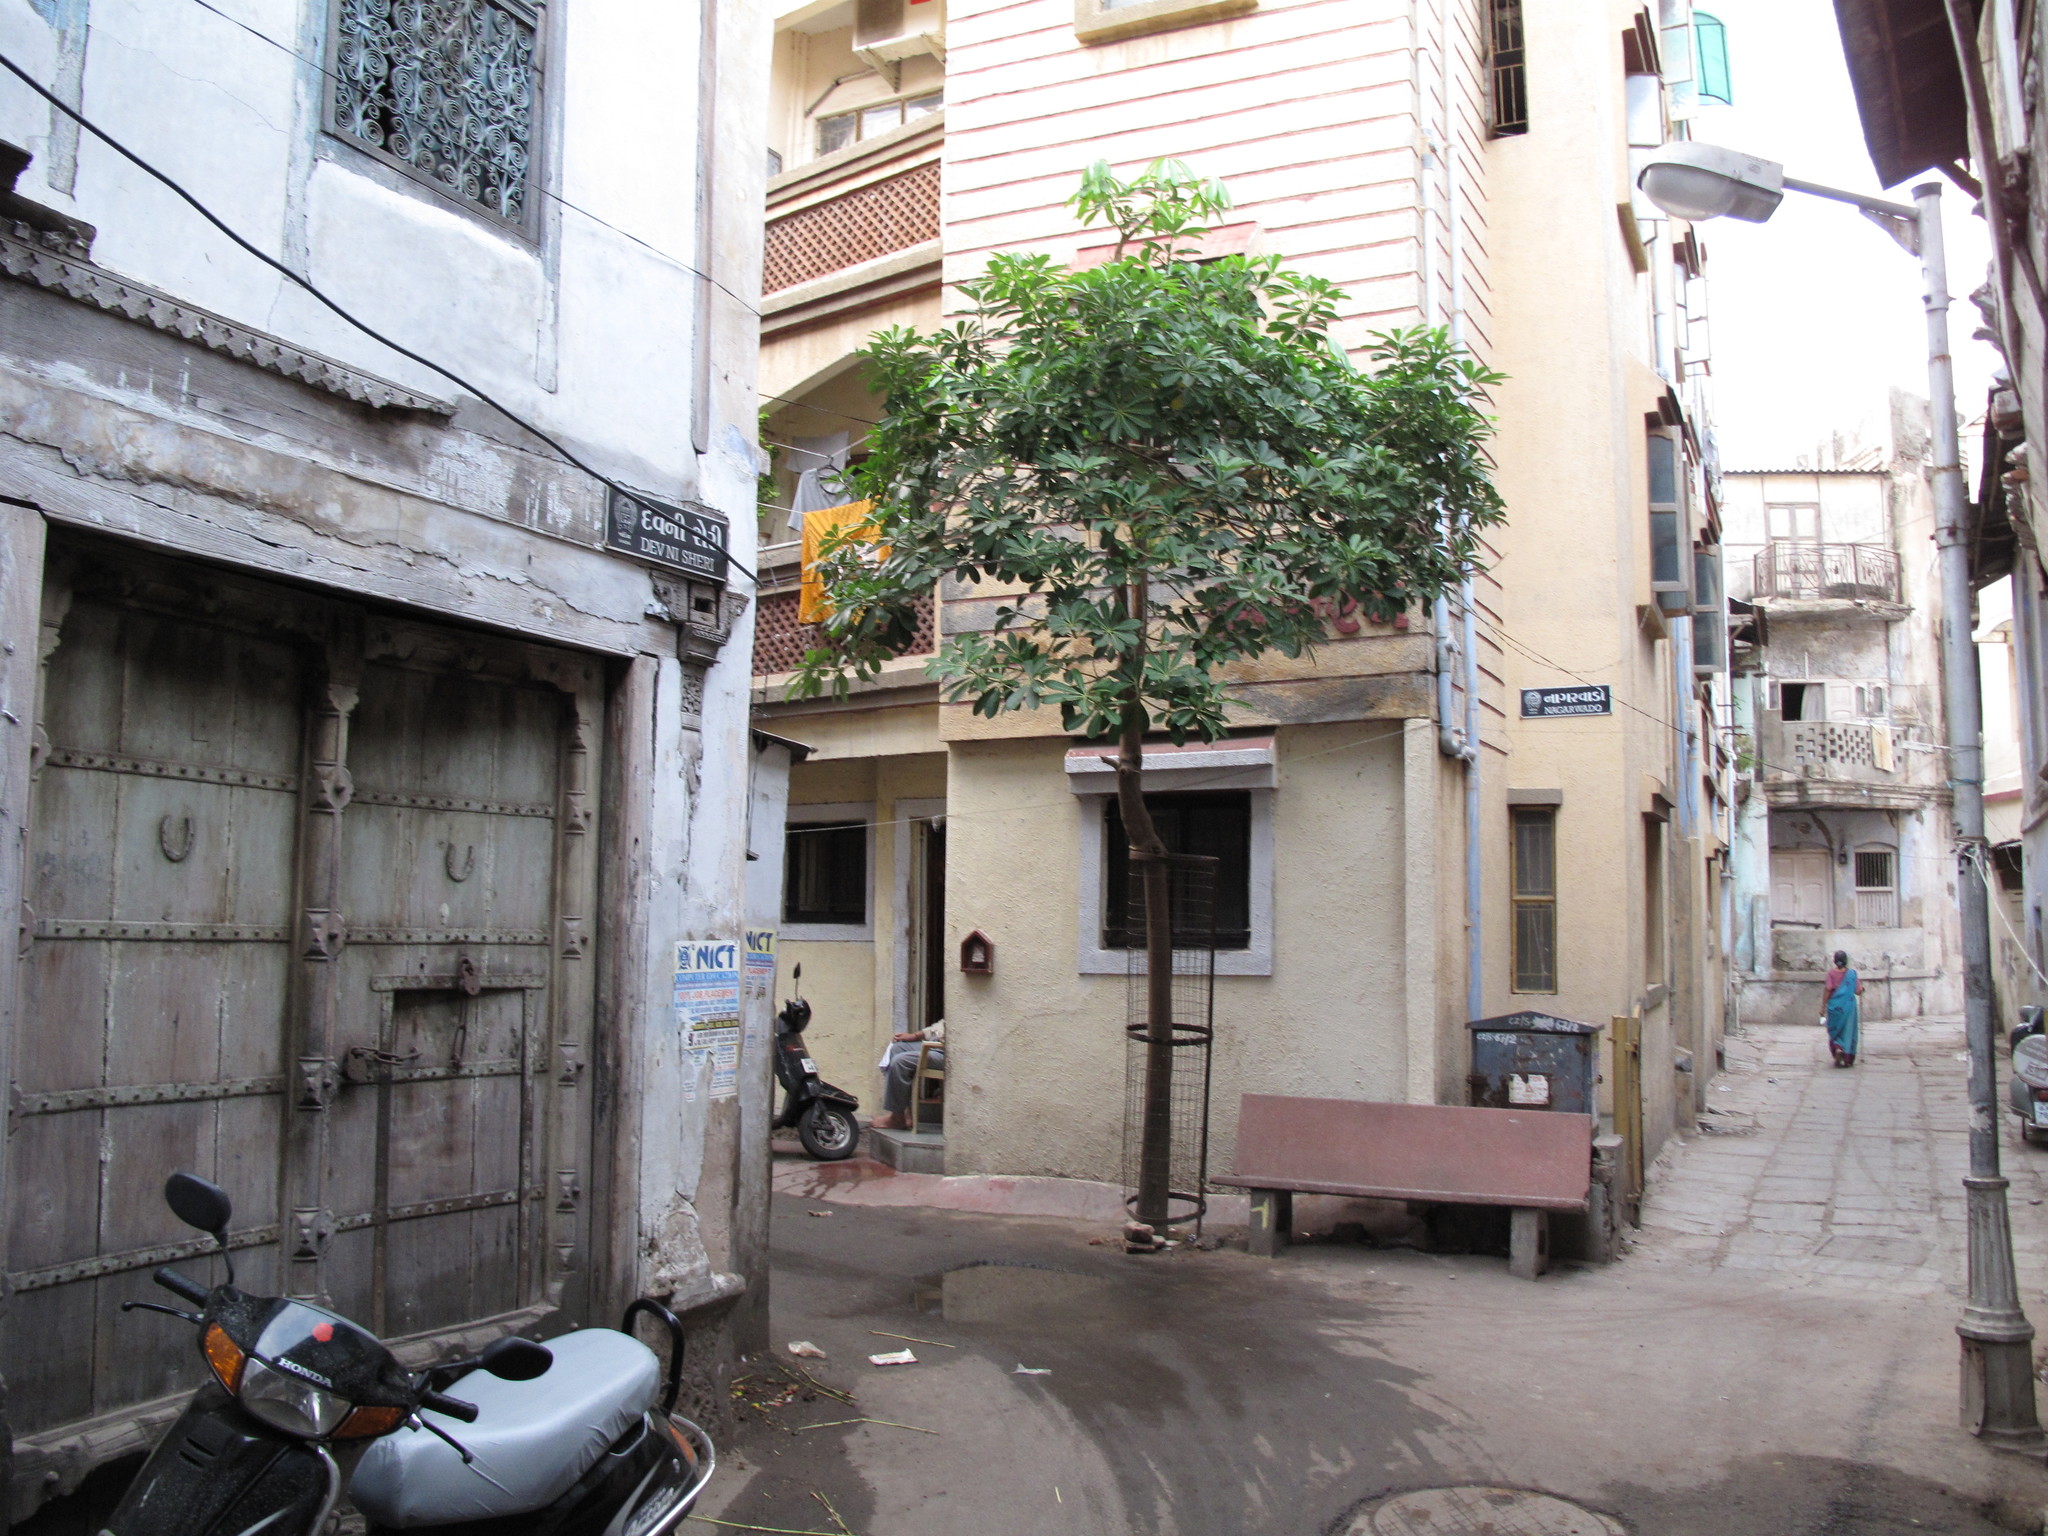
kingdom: Plantae
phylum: Tracheophyta
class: Magnoliopsida
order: Gentianales
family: Apocynaceae
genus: Alstonia
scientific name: Alstonia scholaris
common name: White cheesewood
